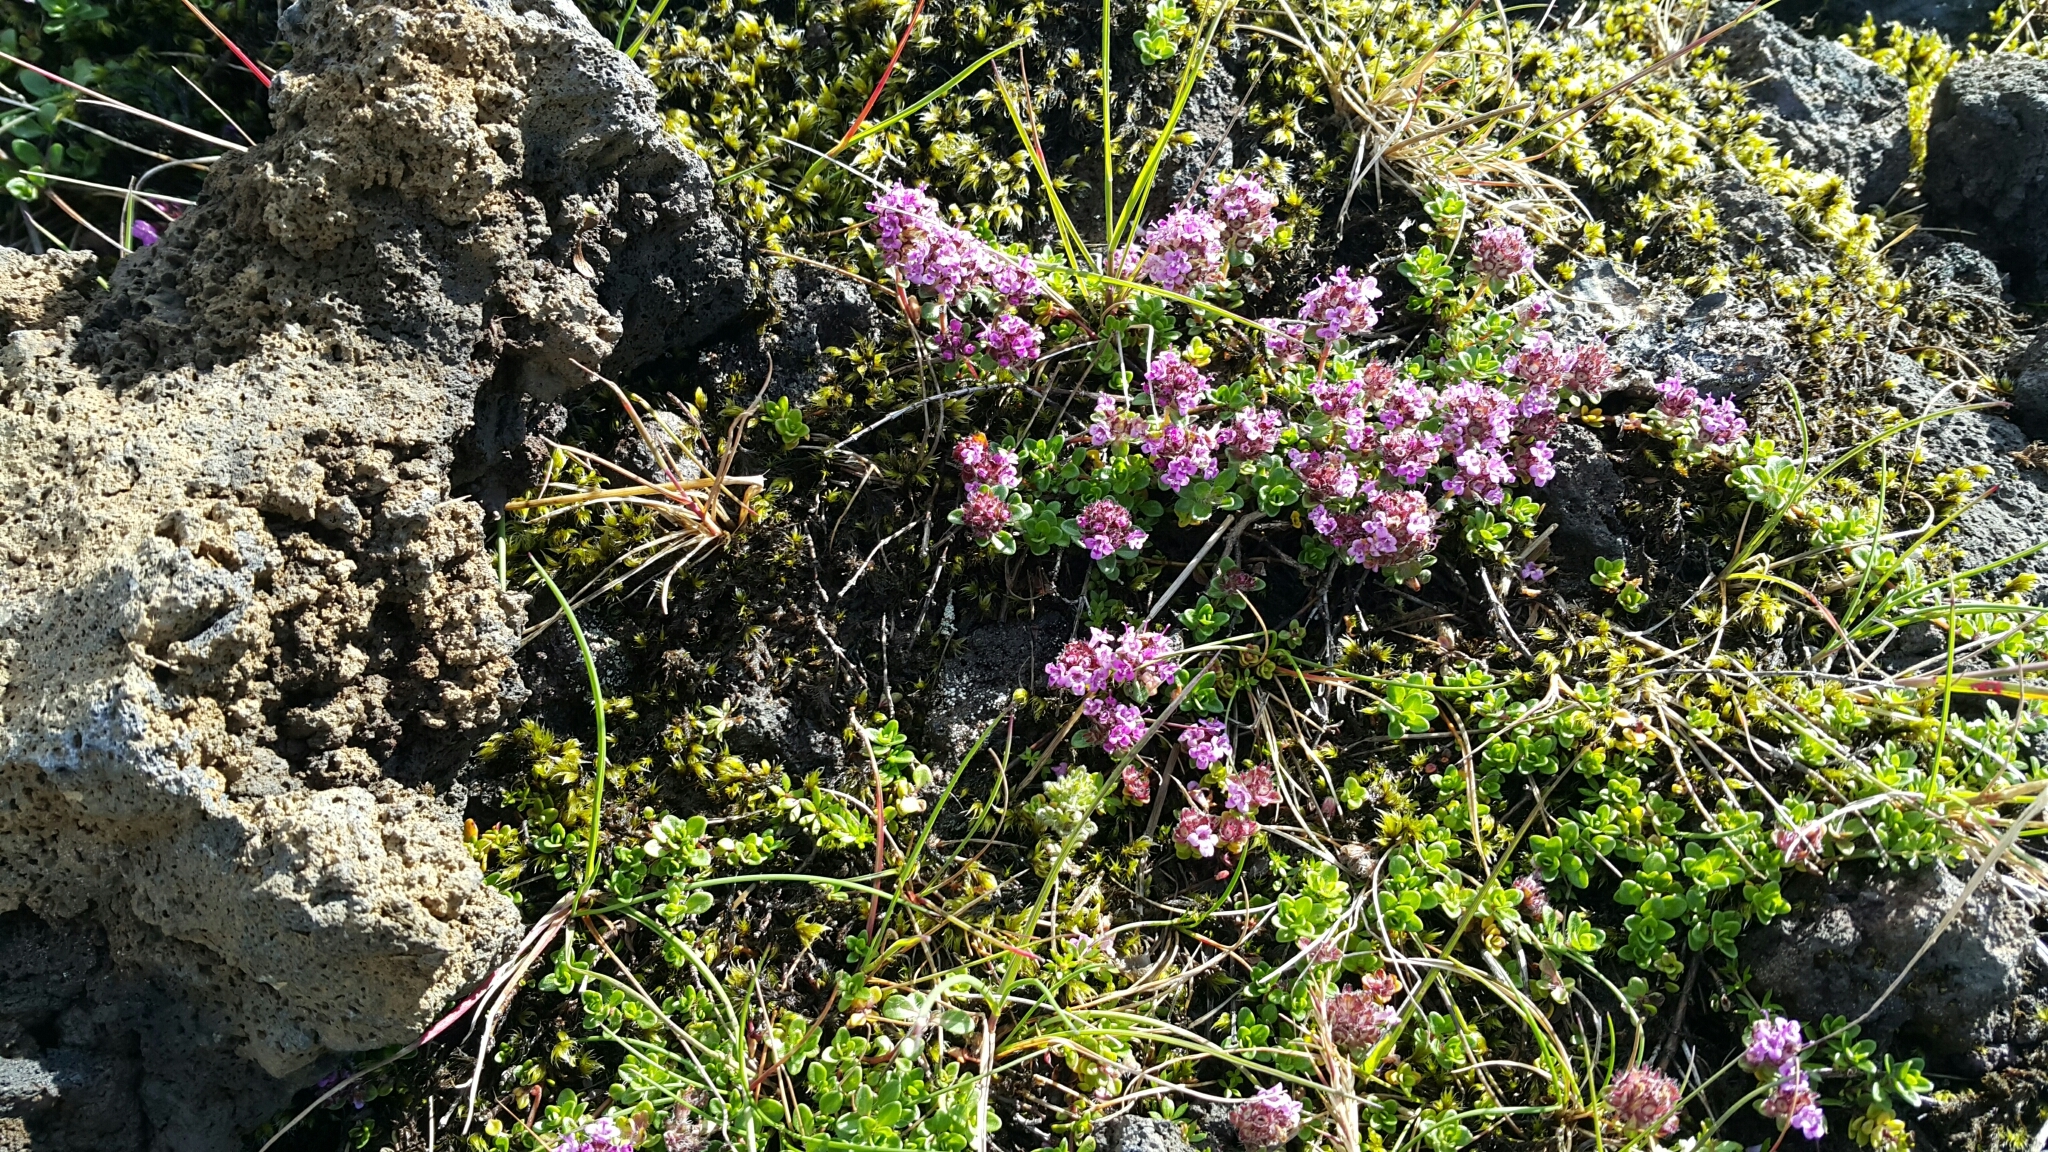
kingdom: Plantae
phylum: Tracheophyta
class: Magnoliopsida
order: Lamiales
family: Lamiaceae
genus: Thymus
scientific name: Thymus praecox
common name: Wild thyme
